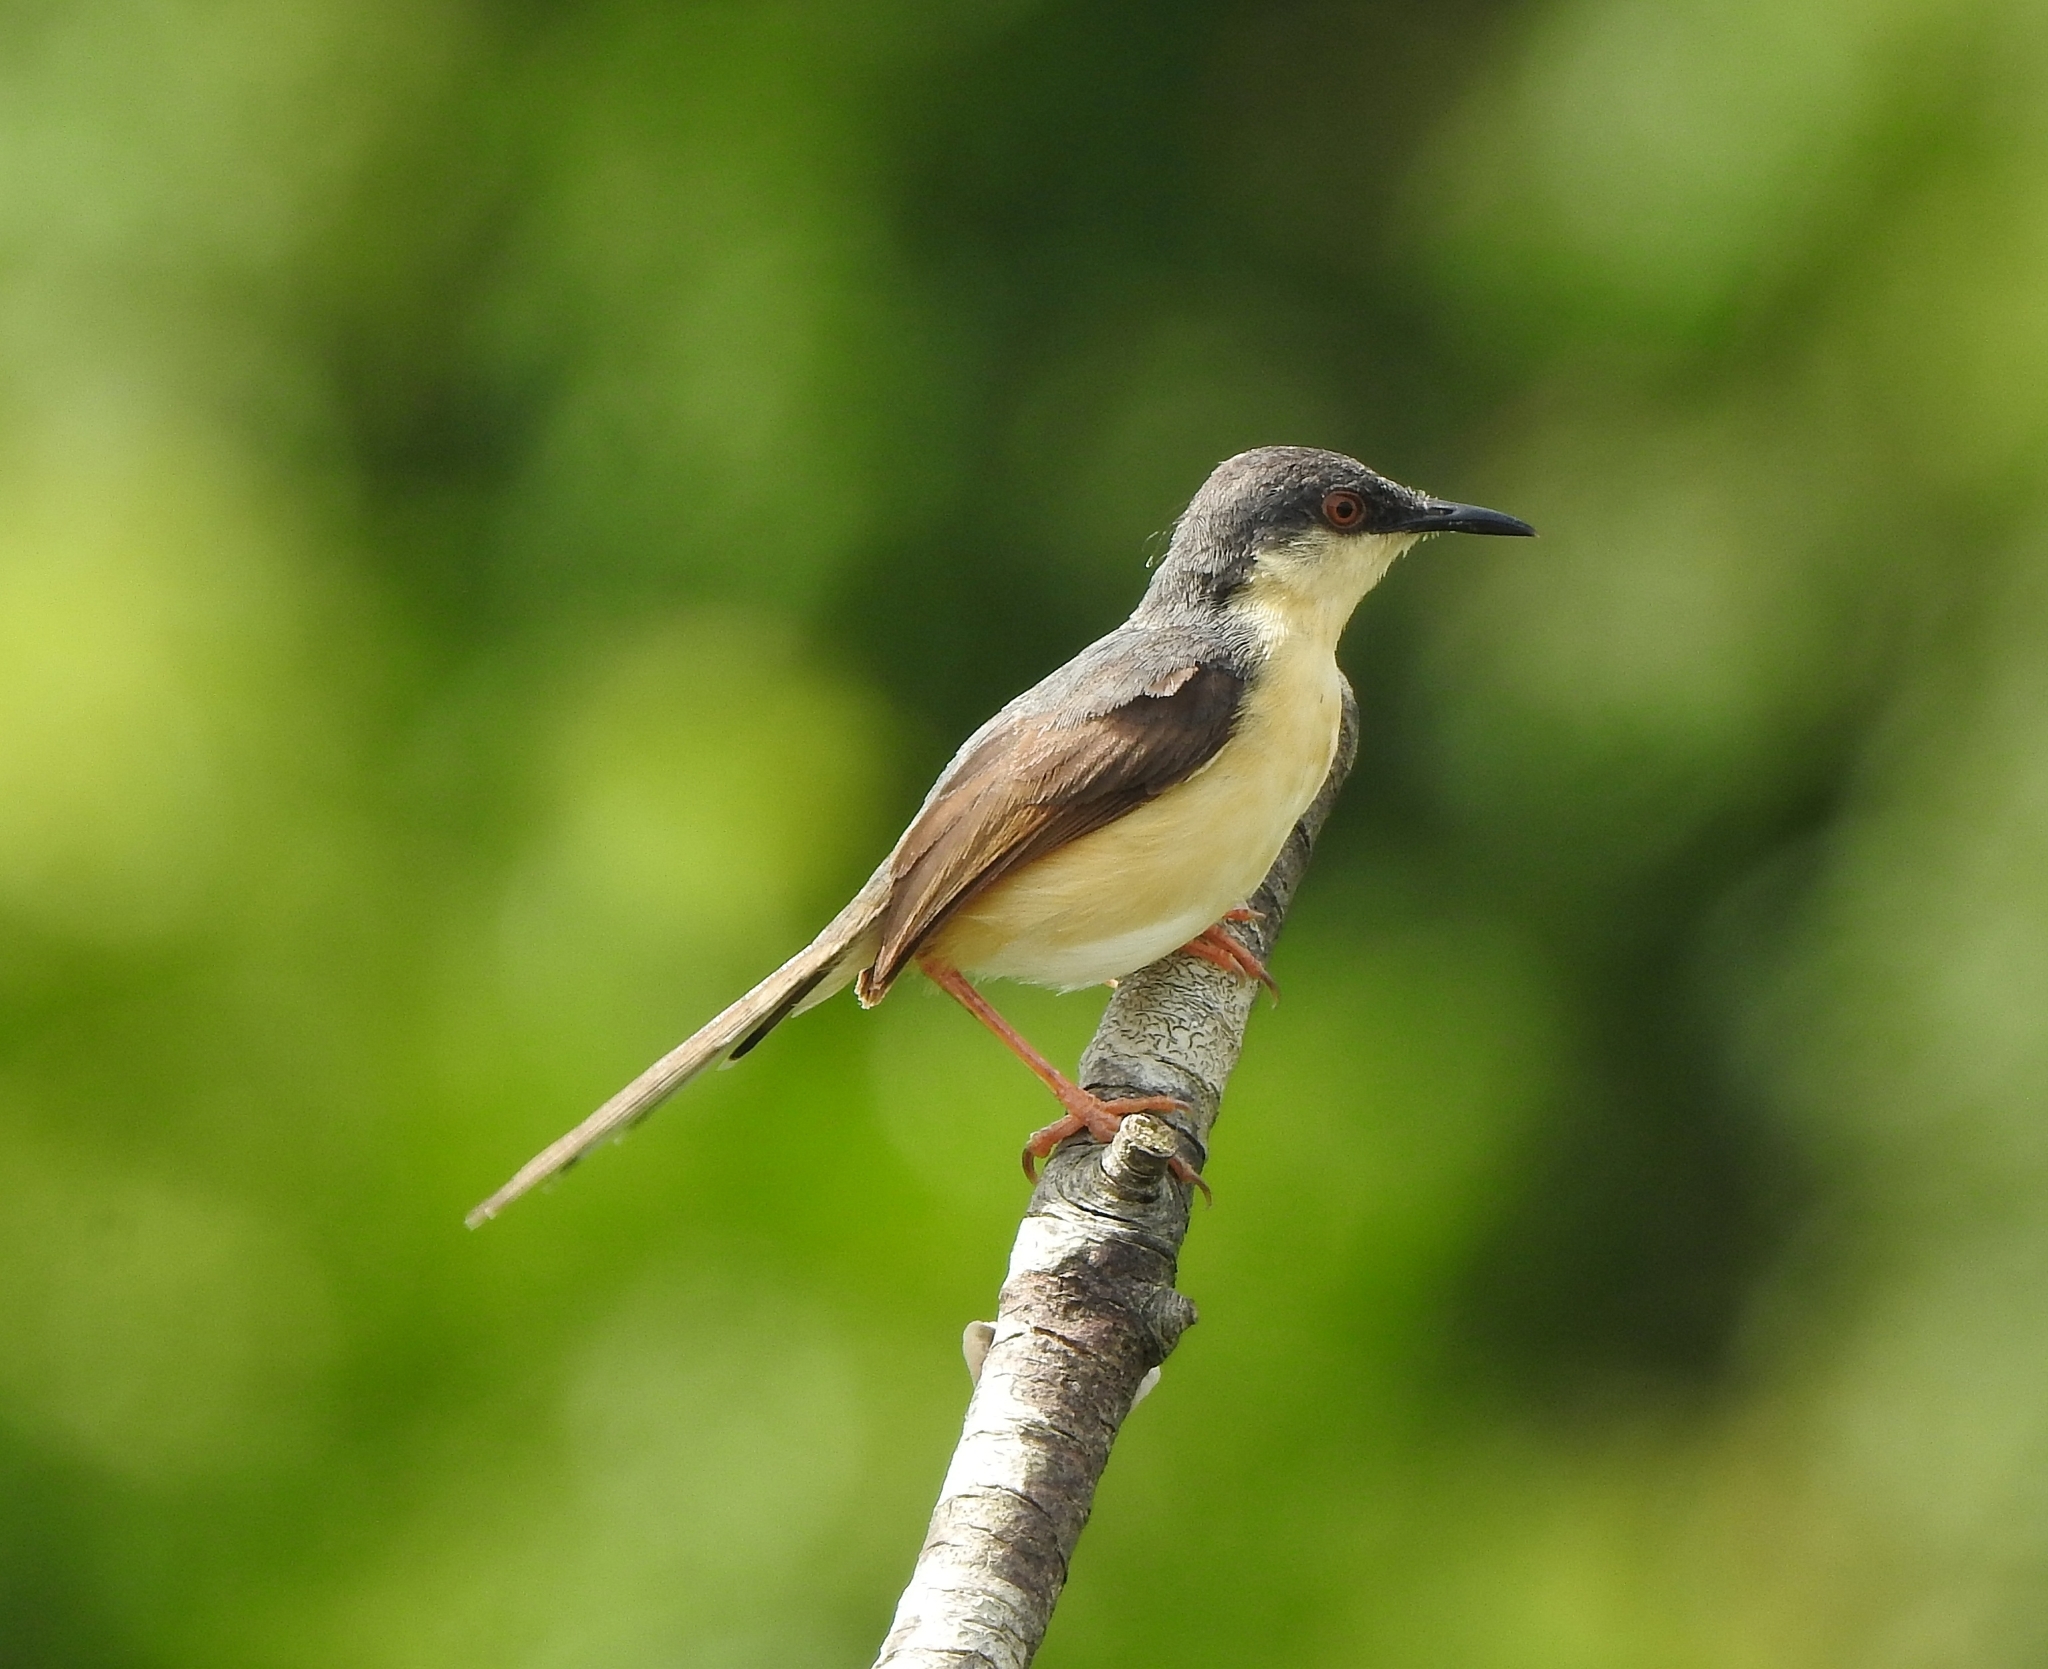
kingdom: Animalia
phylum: Chordata
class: Aves
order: Passeriformes
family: Cisticolidae
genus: Prinia
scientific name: Prinia socialis
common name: Ashy prinia
